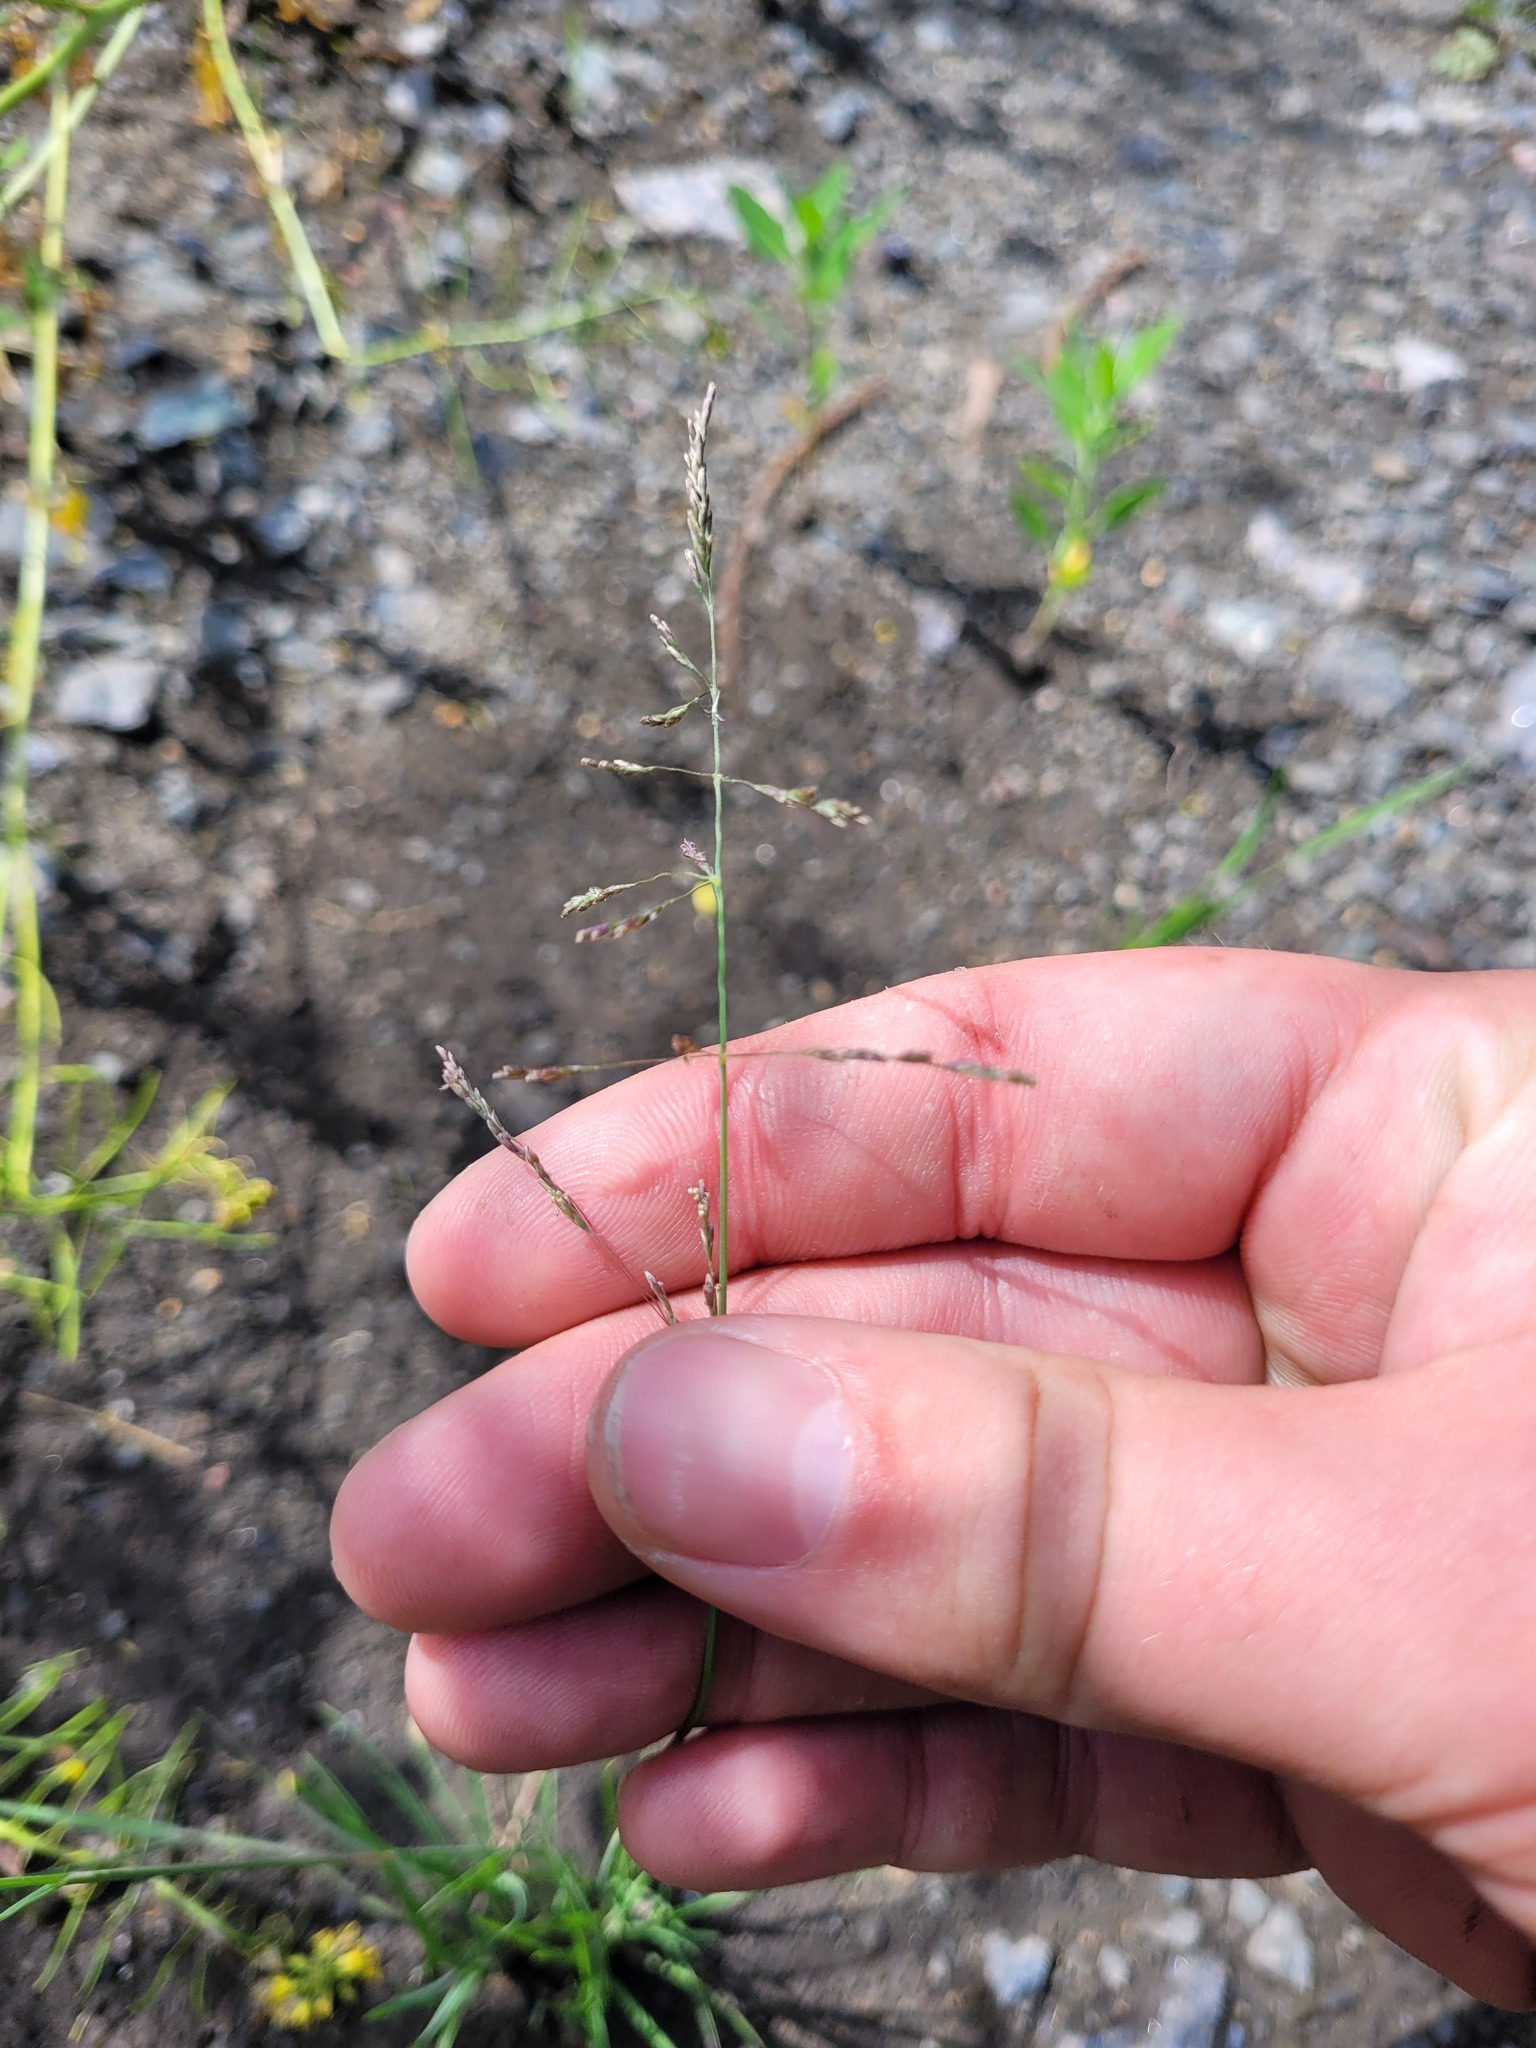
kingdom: Plantae
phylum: Tracheophyta
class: Liliopsida
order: Poales
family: Poaceae
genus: Puccinellia
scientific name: Puccinellia distans
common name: Weeping alkaligrass
